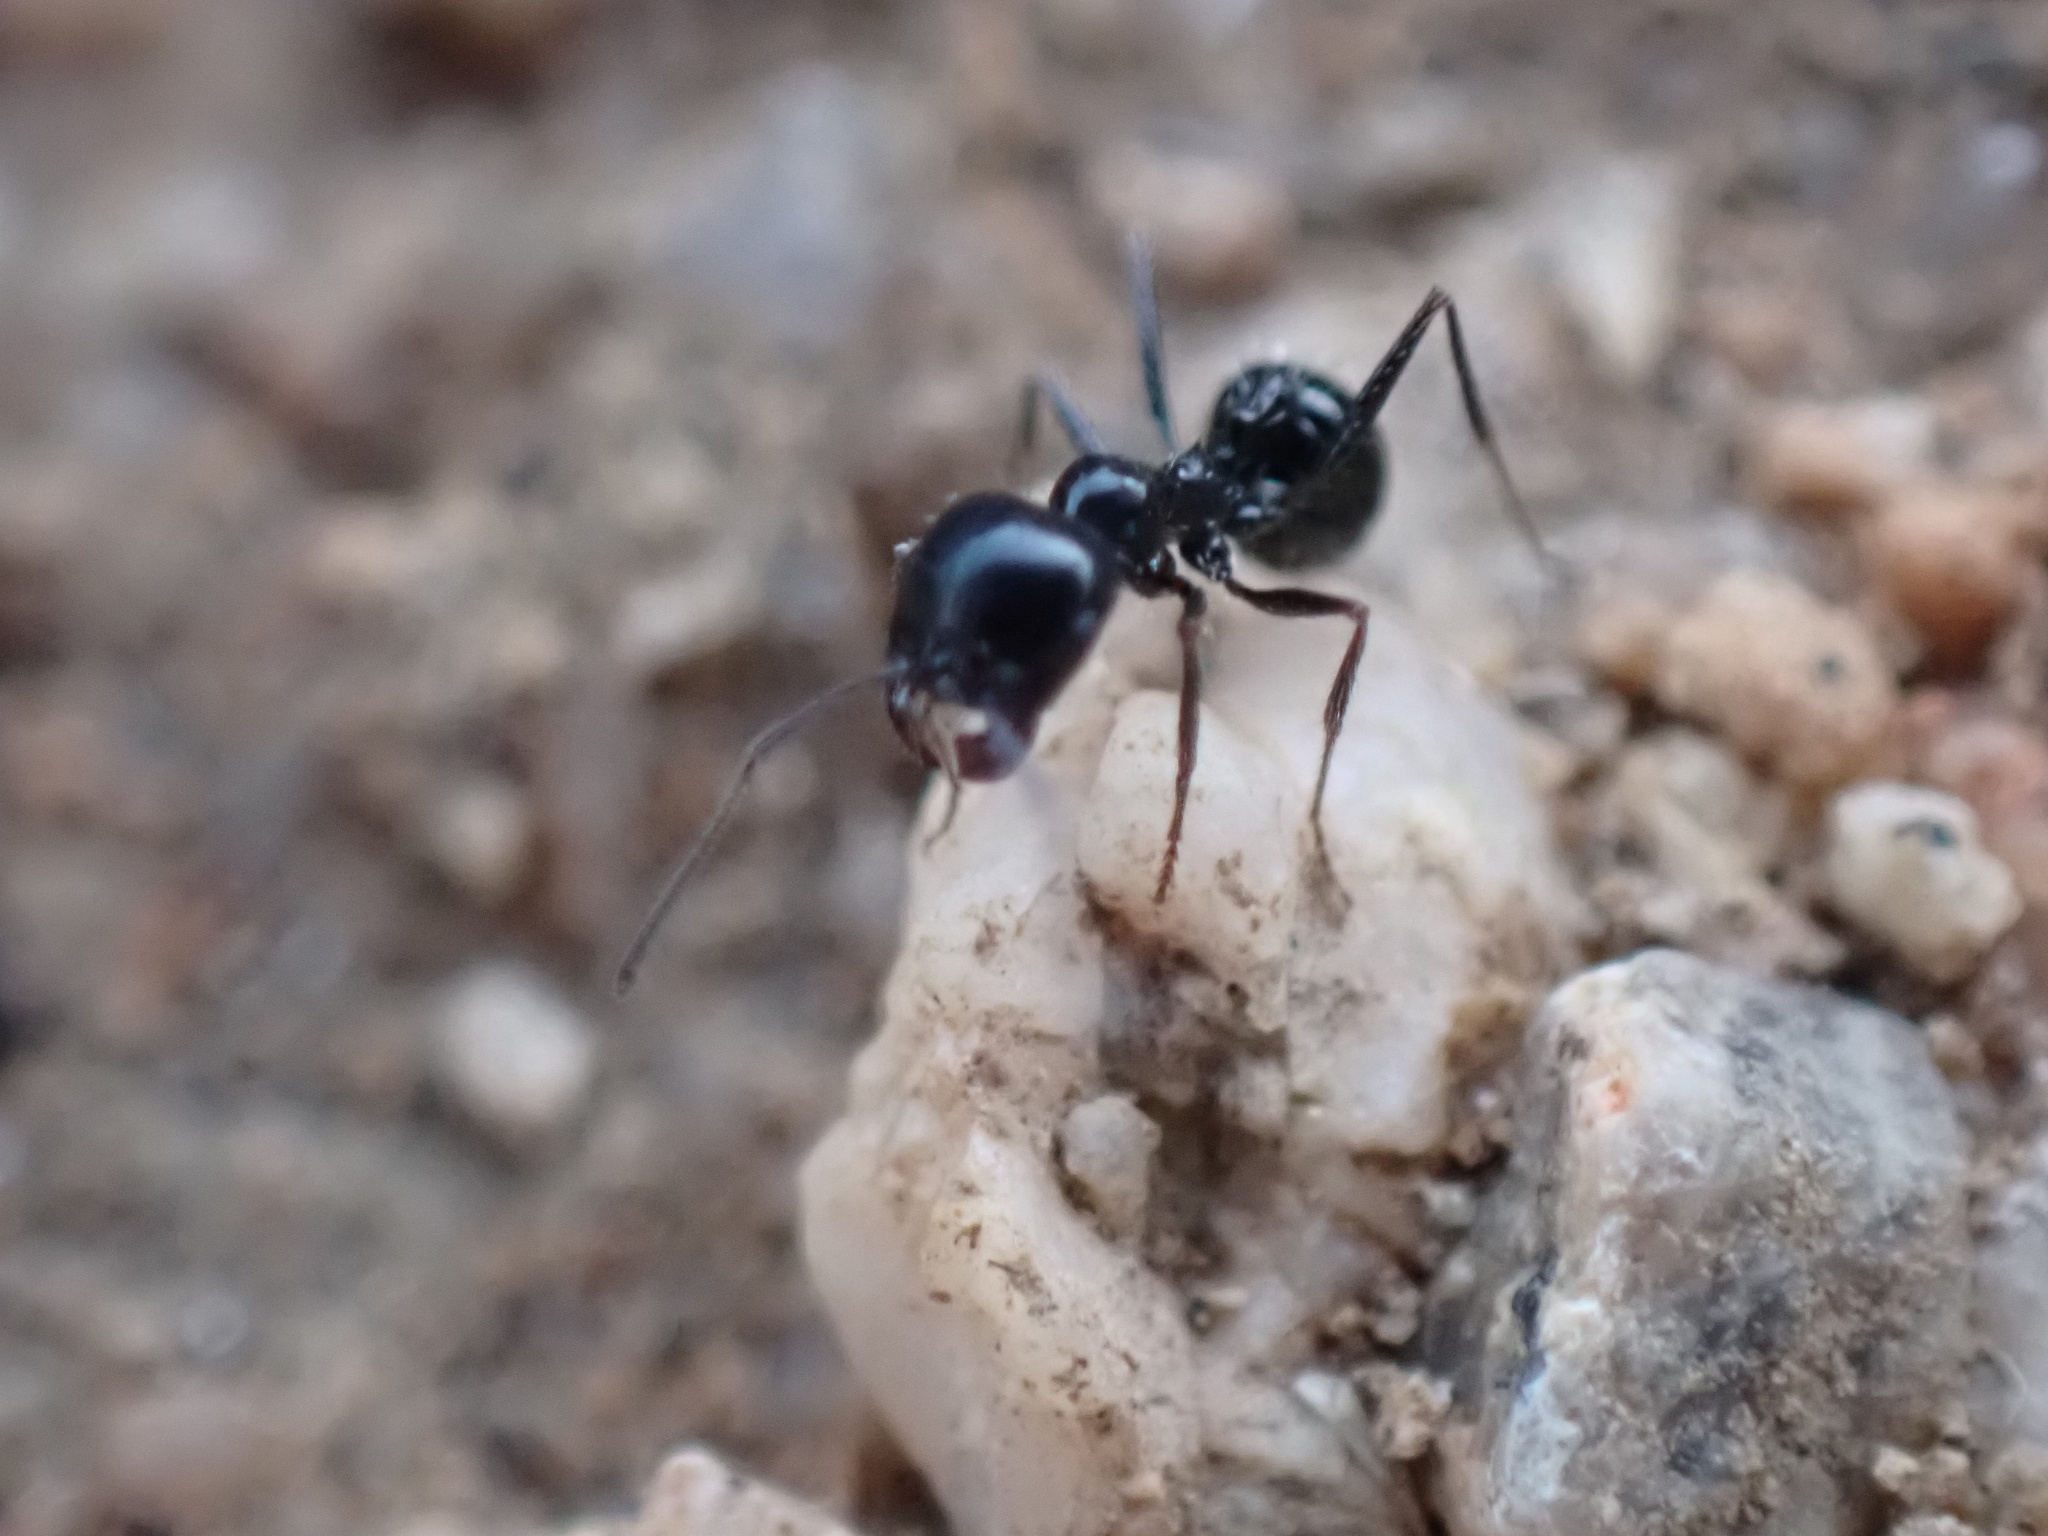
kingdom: Animalia
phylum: Arthropoda
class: Insecta
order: Hymenoptera
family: Formicidae
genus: Messor
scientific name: Messor pergandei
